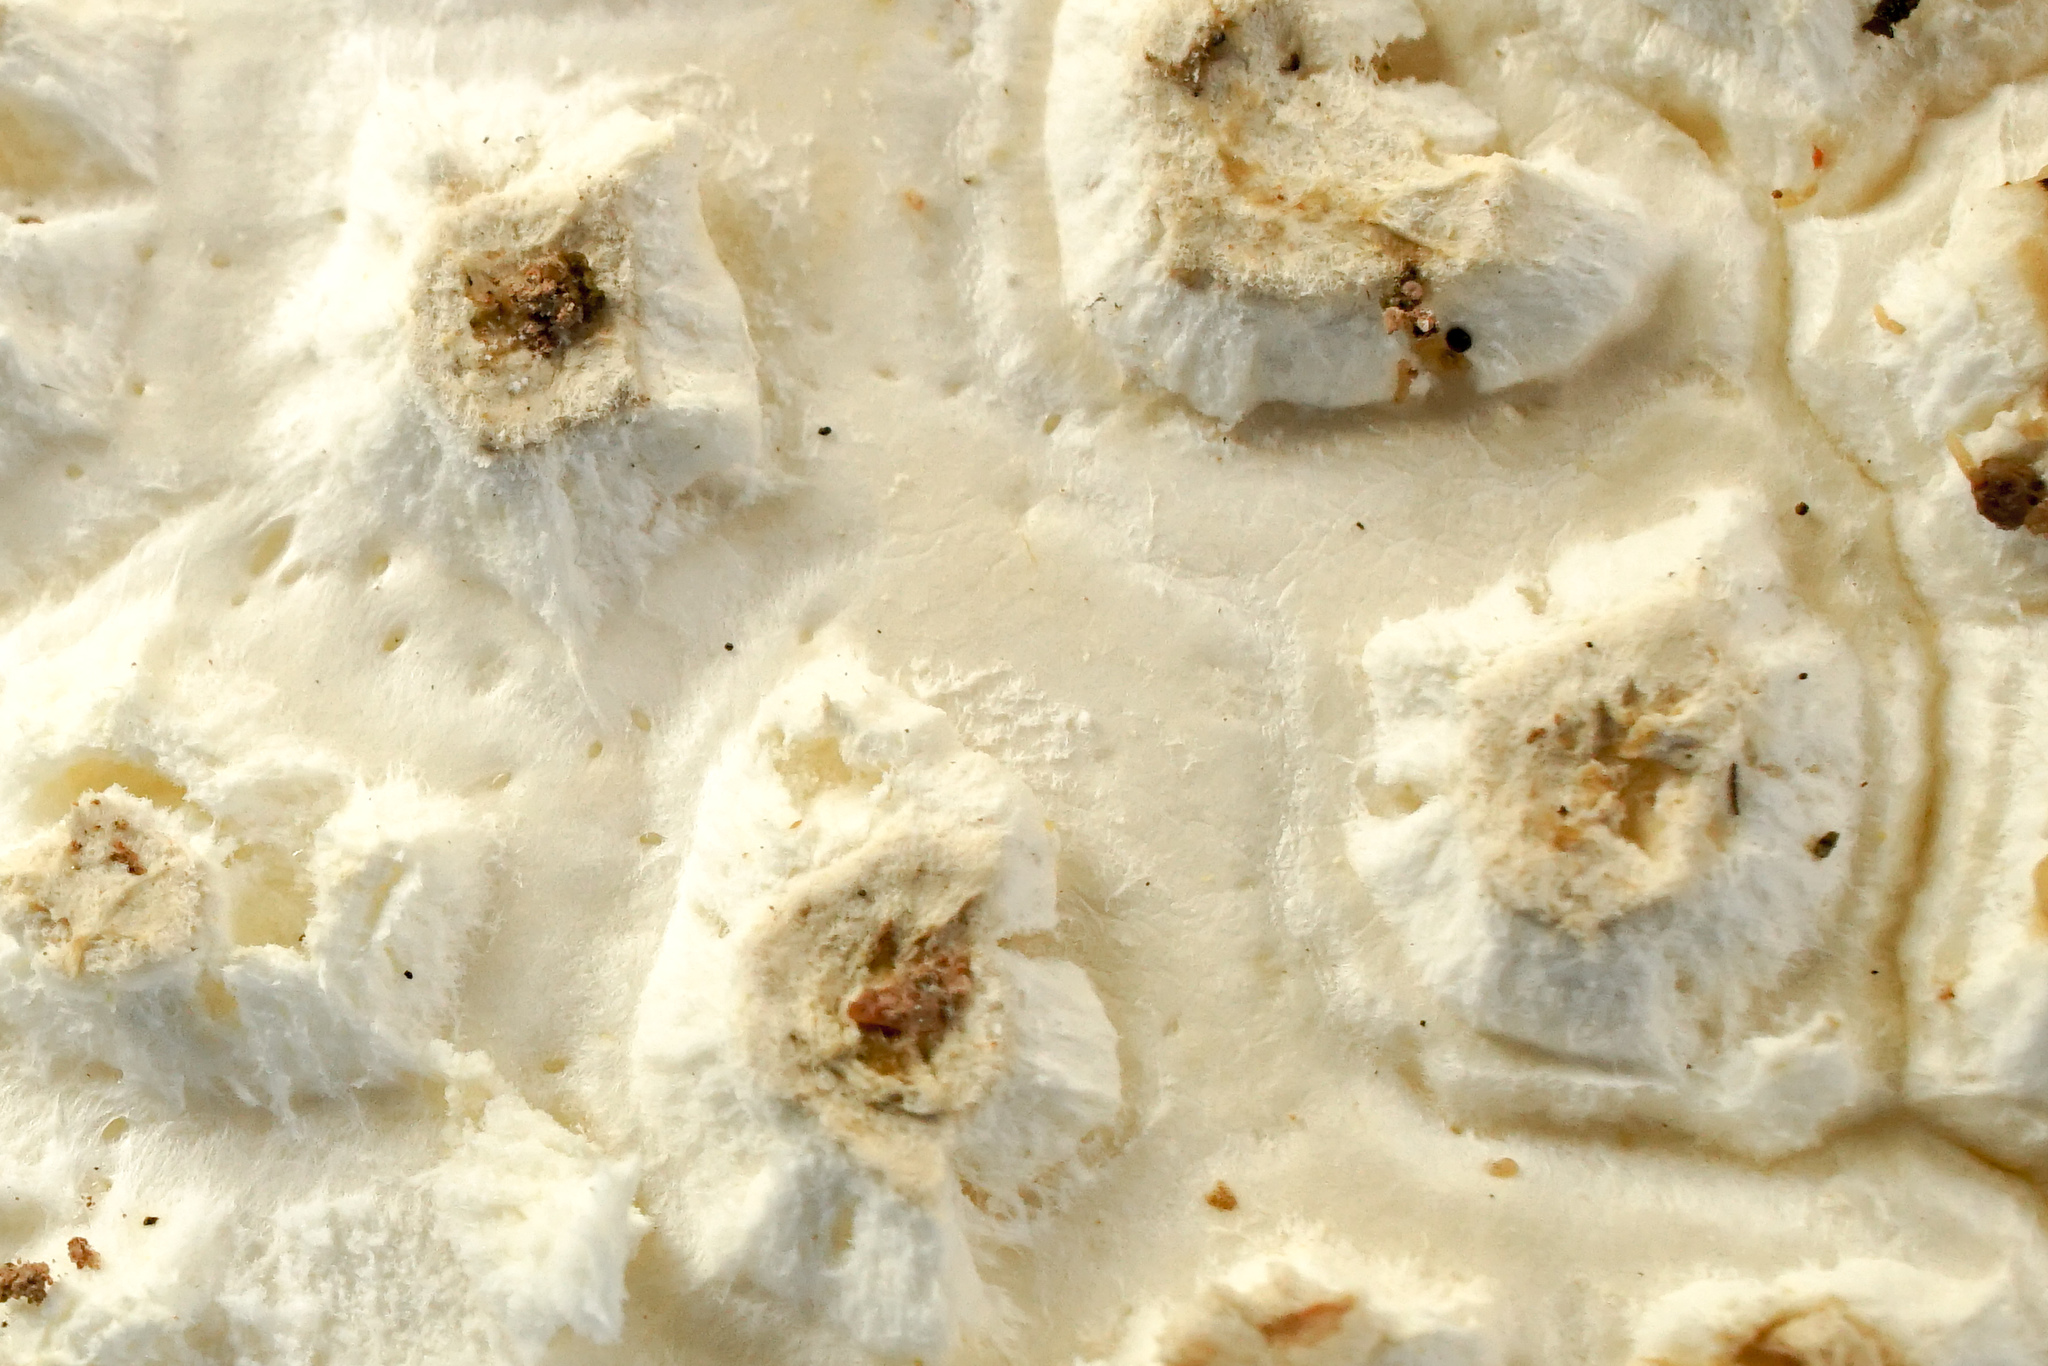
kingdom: Fungi
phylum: Basidiomycota
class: Agaricomycetes
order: Agaricales
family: Amanitaceae
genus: Amanita
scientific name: Amanita ravenelii
